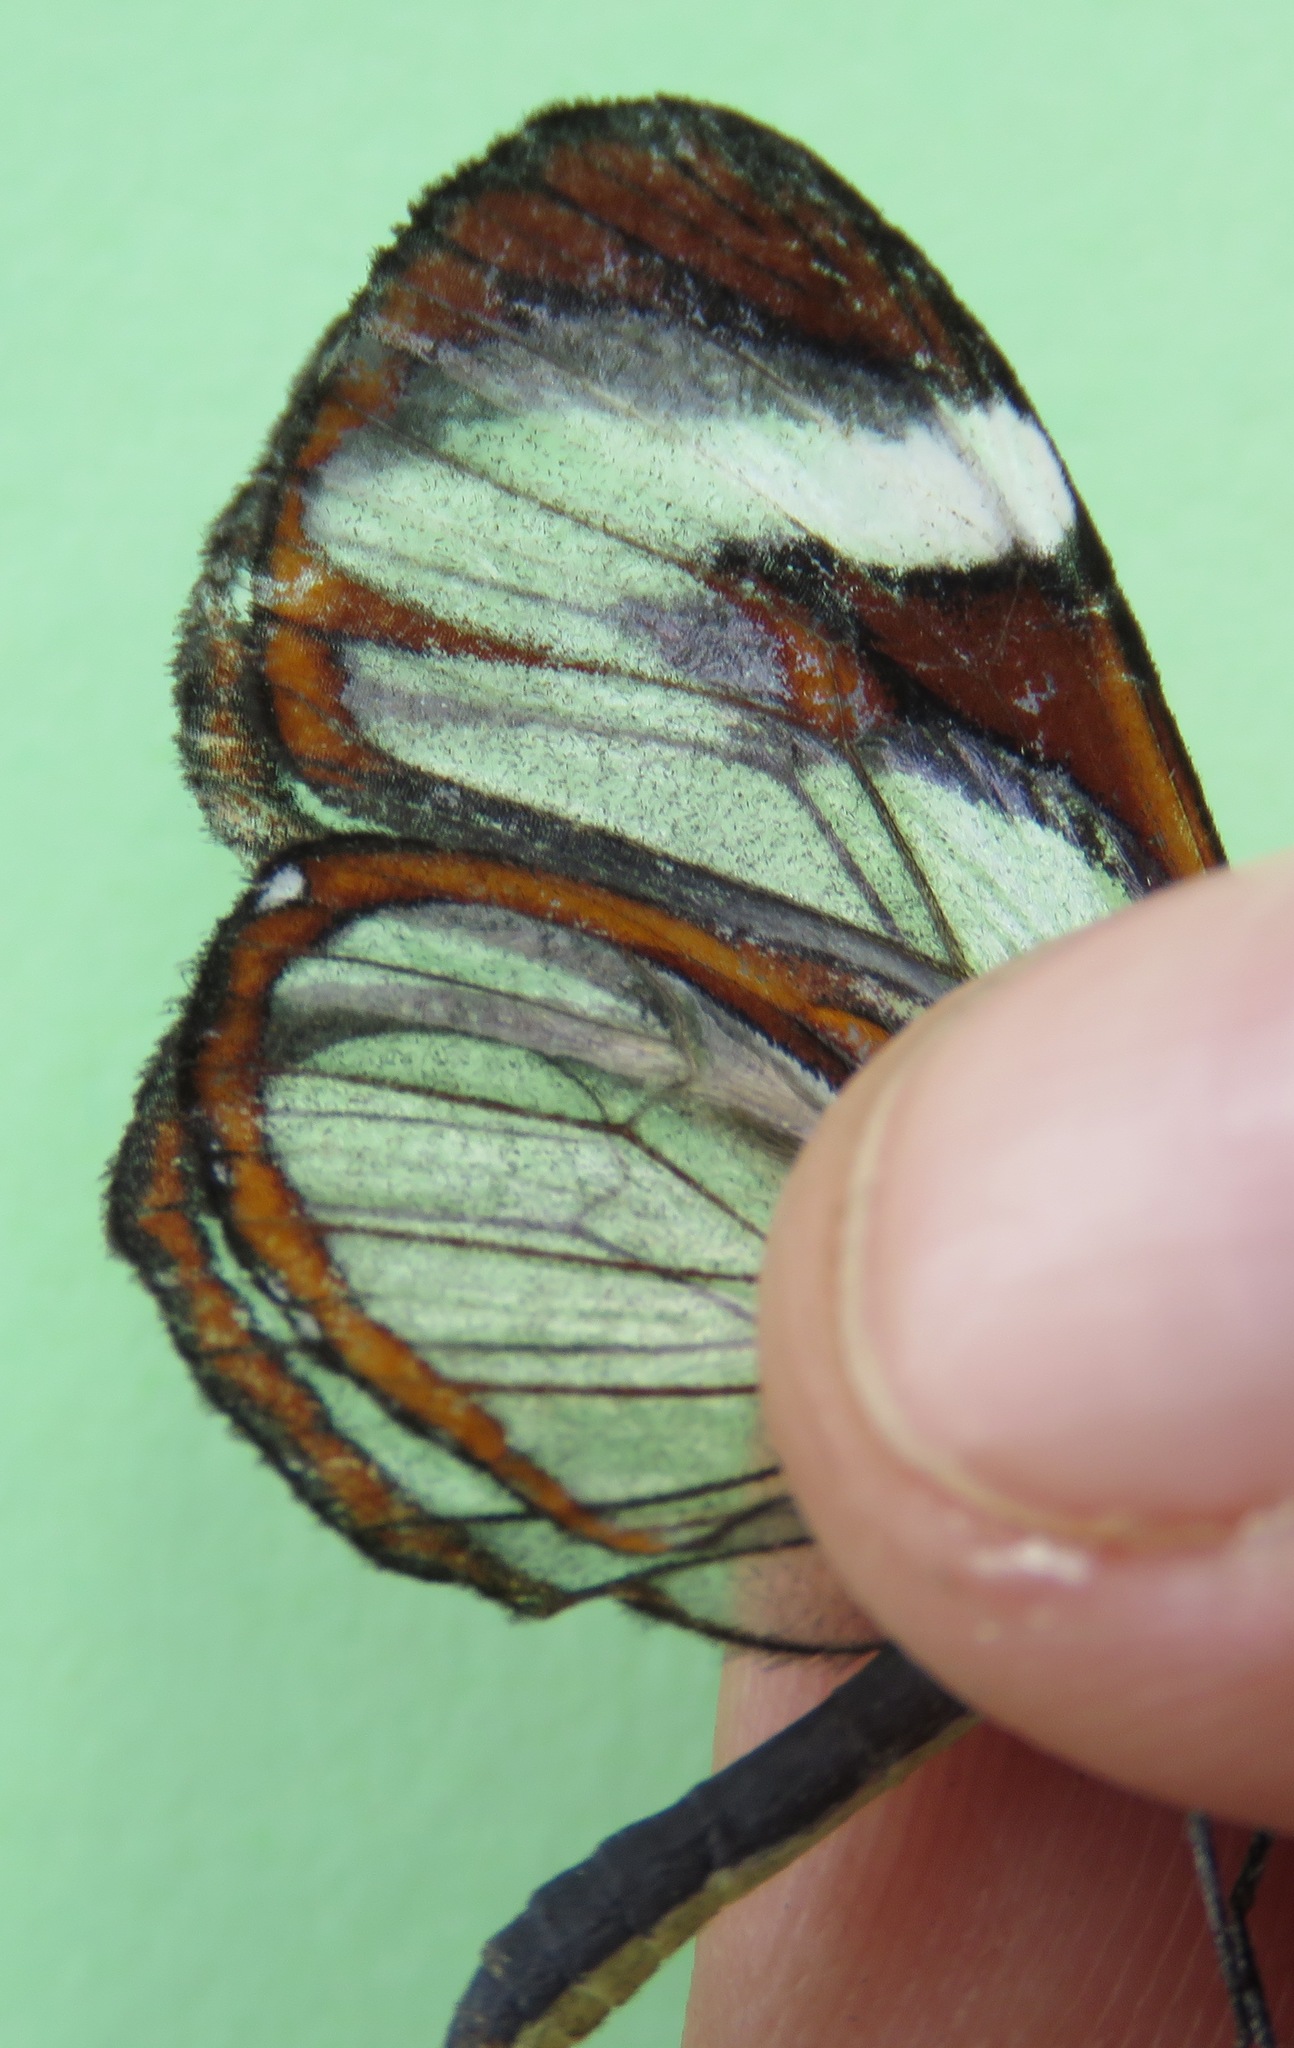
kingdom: Animalia
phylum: Arthropoda
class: Insecta
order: Lepidoptera
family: Nymphalidae
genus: Ithomia
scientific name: Ithomia patilla
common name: Patilla clearwing
